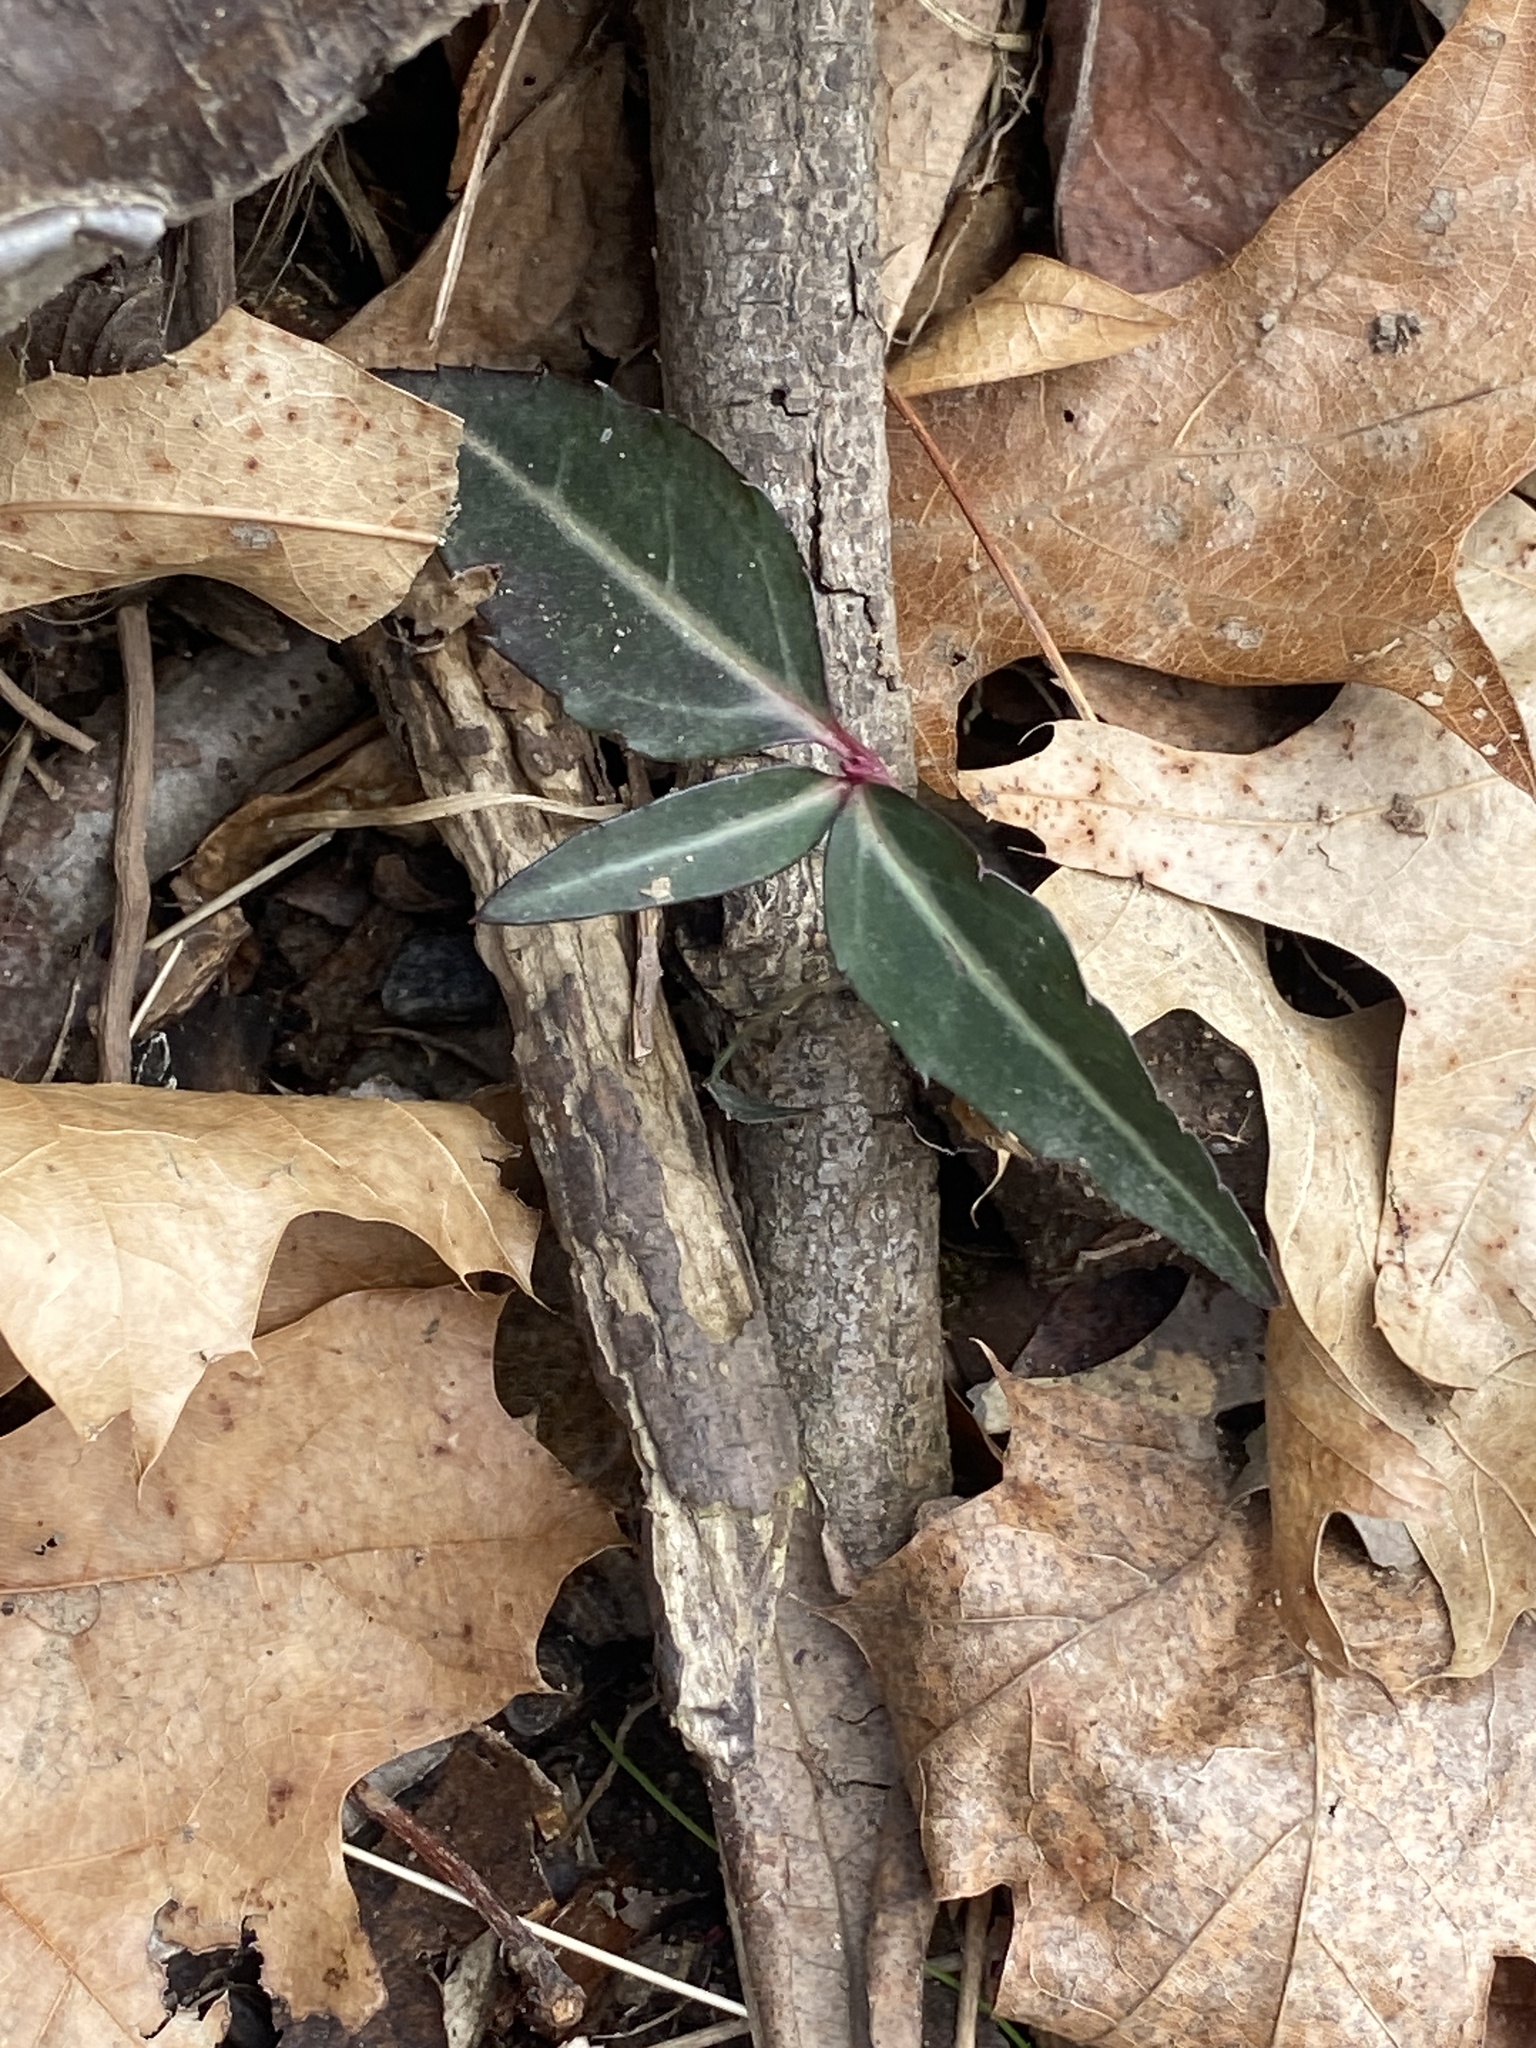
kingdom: Plantae
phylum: Tracheophyta
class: Magnoliopsida
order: Ericales
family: Ericaceae
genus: Chimaphila
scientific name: Chimaphila maculata
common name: Spotted pipsissewa
